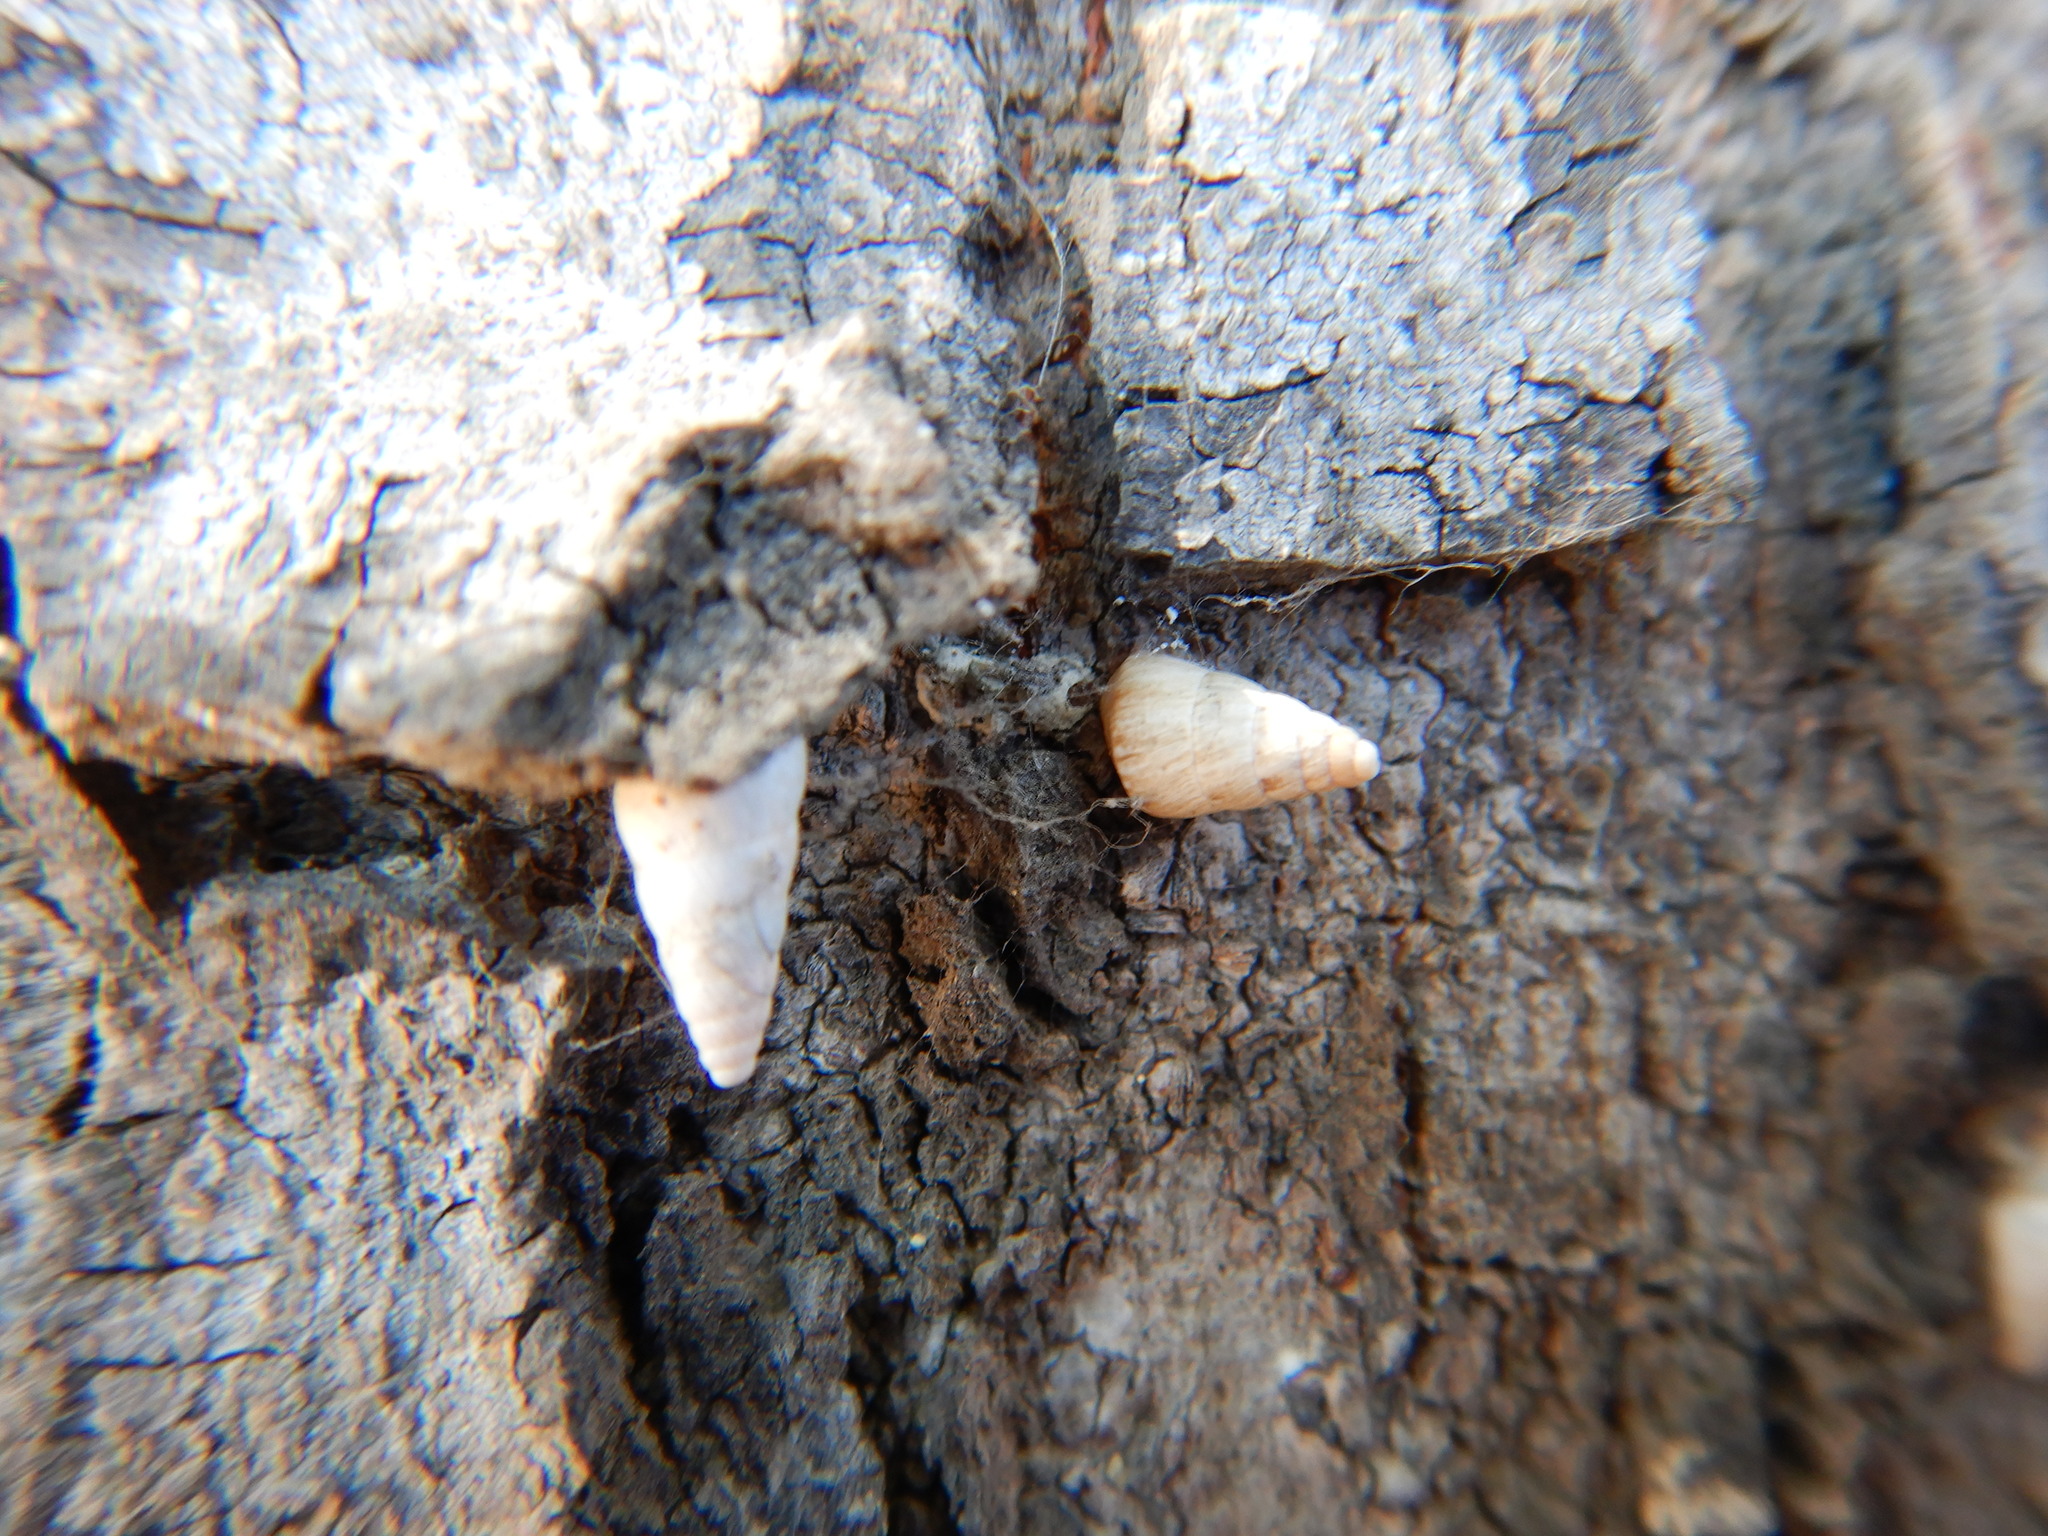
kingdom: Animalia
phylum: Mollusca
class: Gastropoda
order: Stylommatophora
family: Geomitridae
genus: Cochlicella
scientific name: Cochlicella acuta
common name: Pointed snail
